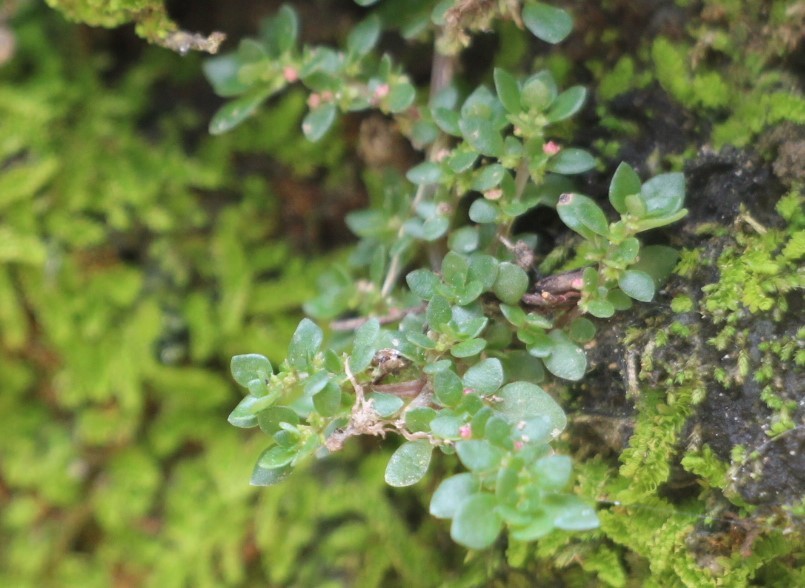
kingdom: Plantae
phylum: Tracheophyta
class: Magnoliopsida
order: Rosales
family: Urticaceae
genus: Pilea
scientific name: Pilea microphylla
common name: Artillery-plant
